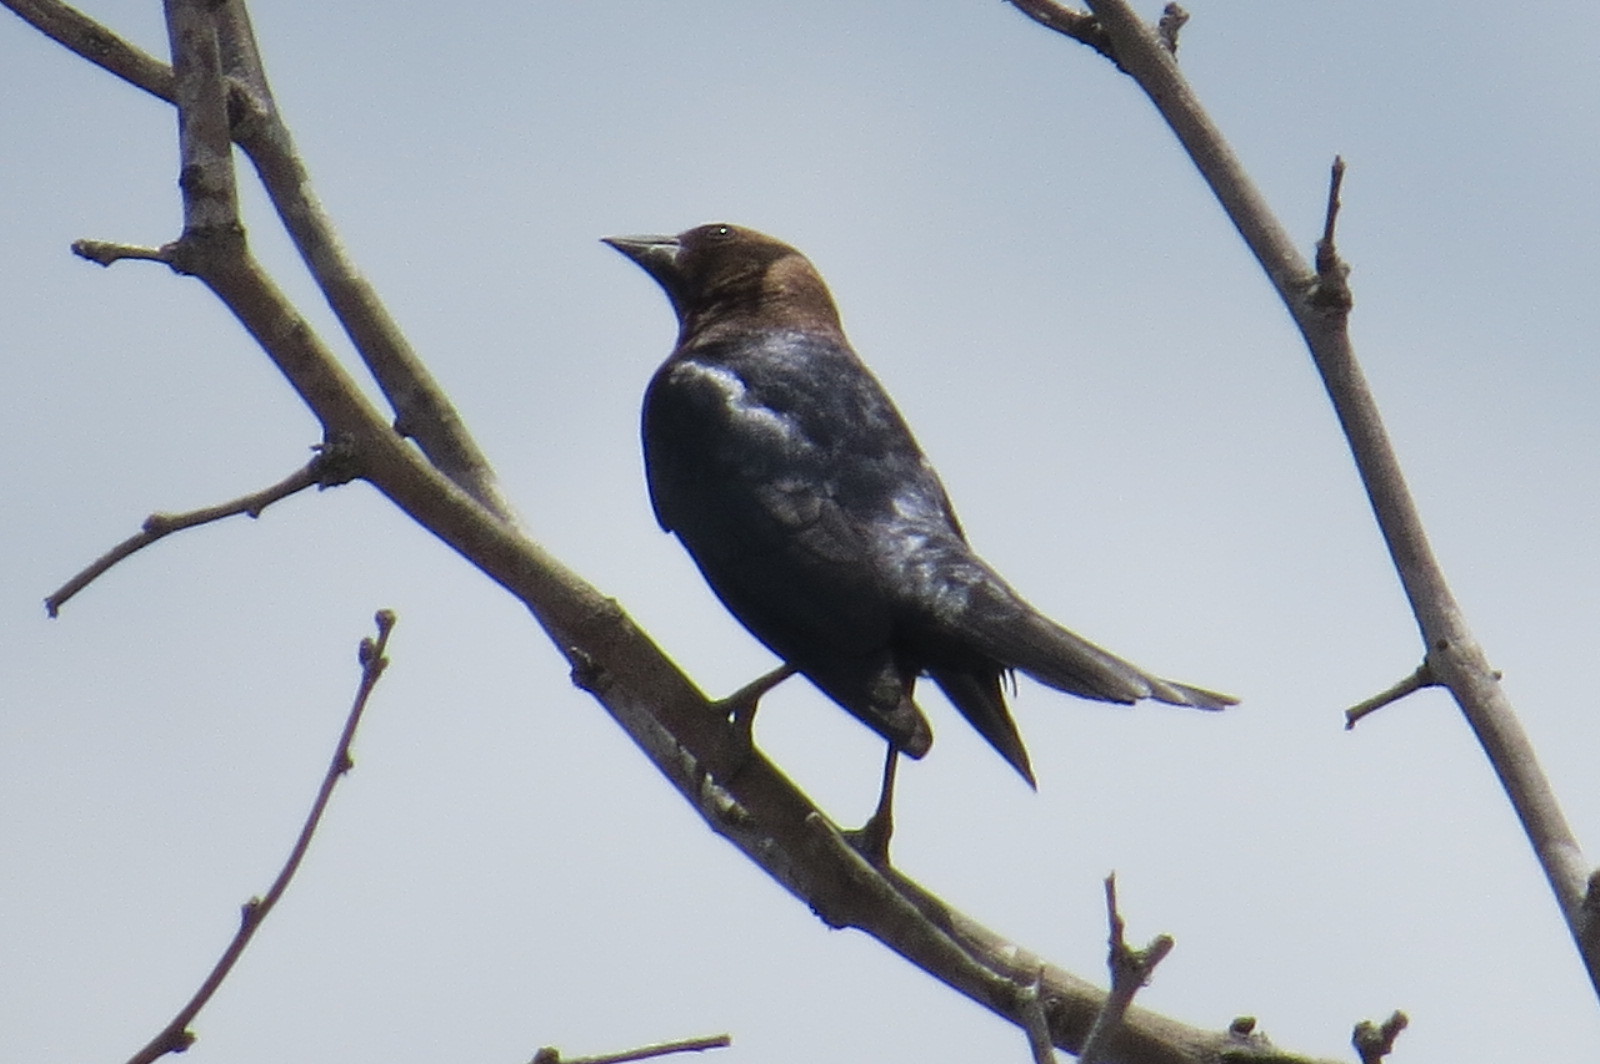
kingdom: Animalia
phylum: Chordata
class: Aves
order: Passeriformes
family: Icteridae
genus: Molothrus
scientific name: Molothrus ater
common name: Brown-headed cowbird
